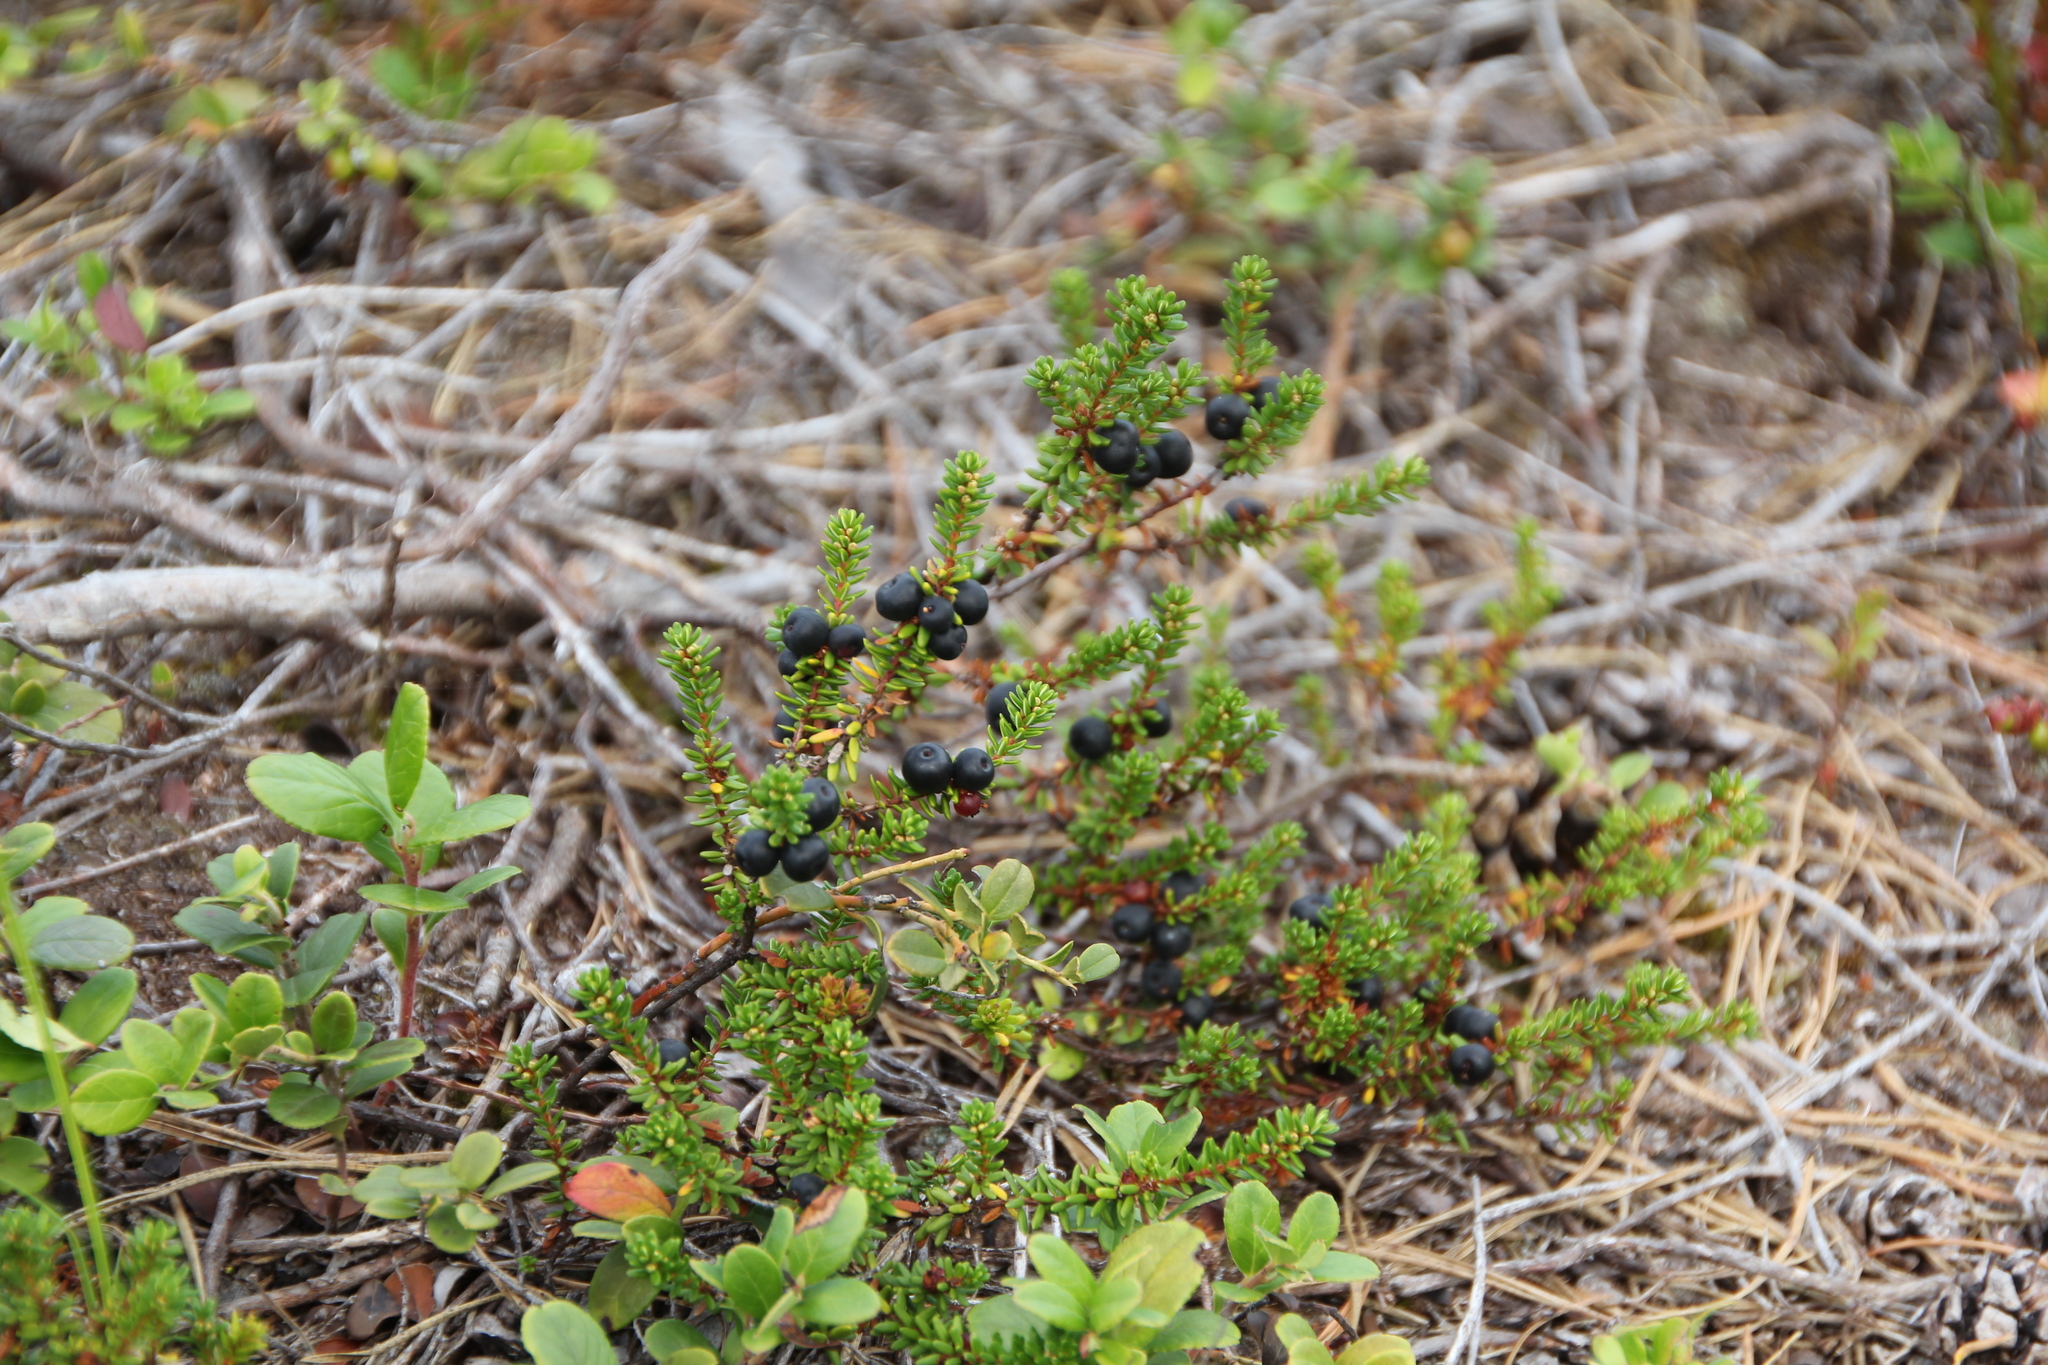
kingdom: Plantae
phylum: Tracheophyta
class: Magnoliopsida
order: Ericales
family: Ericaceae
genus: Empetrum
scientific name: Empetrum nigrum
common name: Black crowberry
